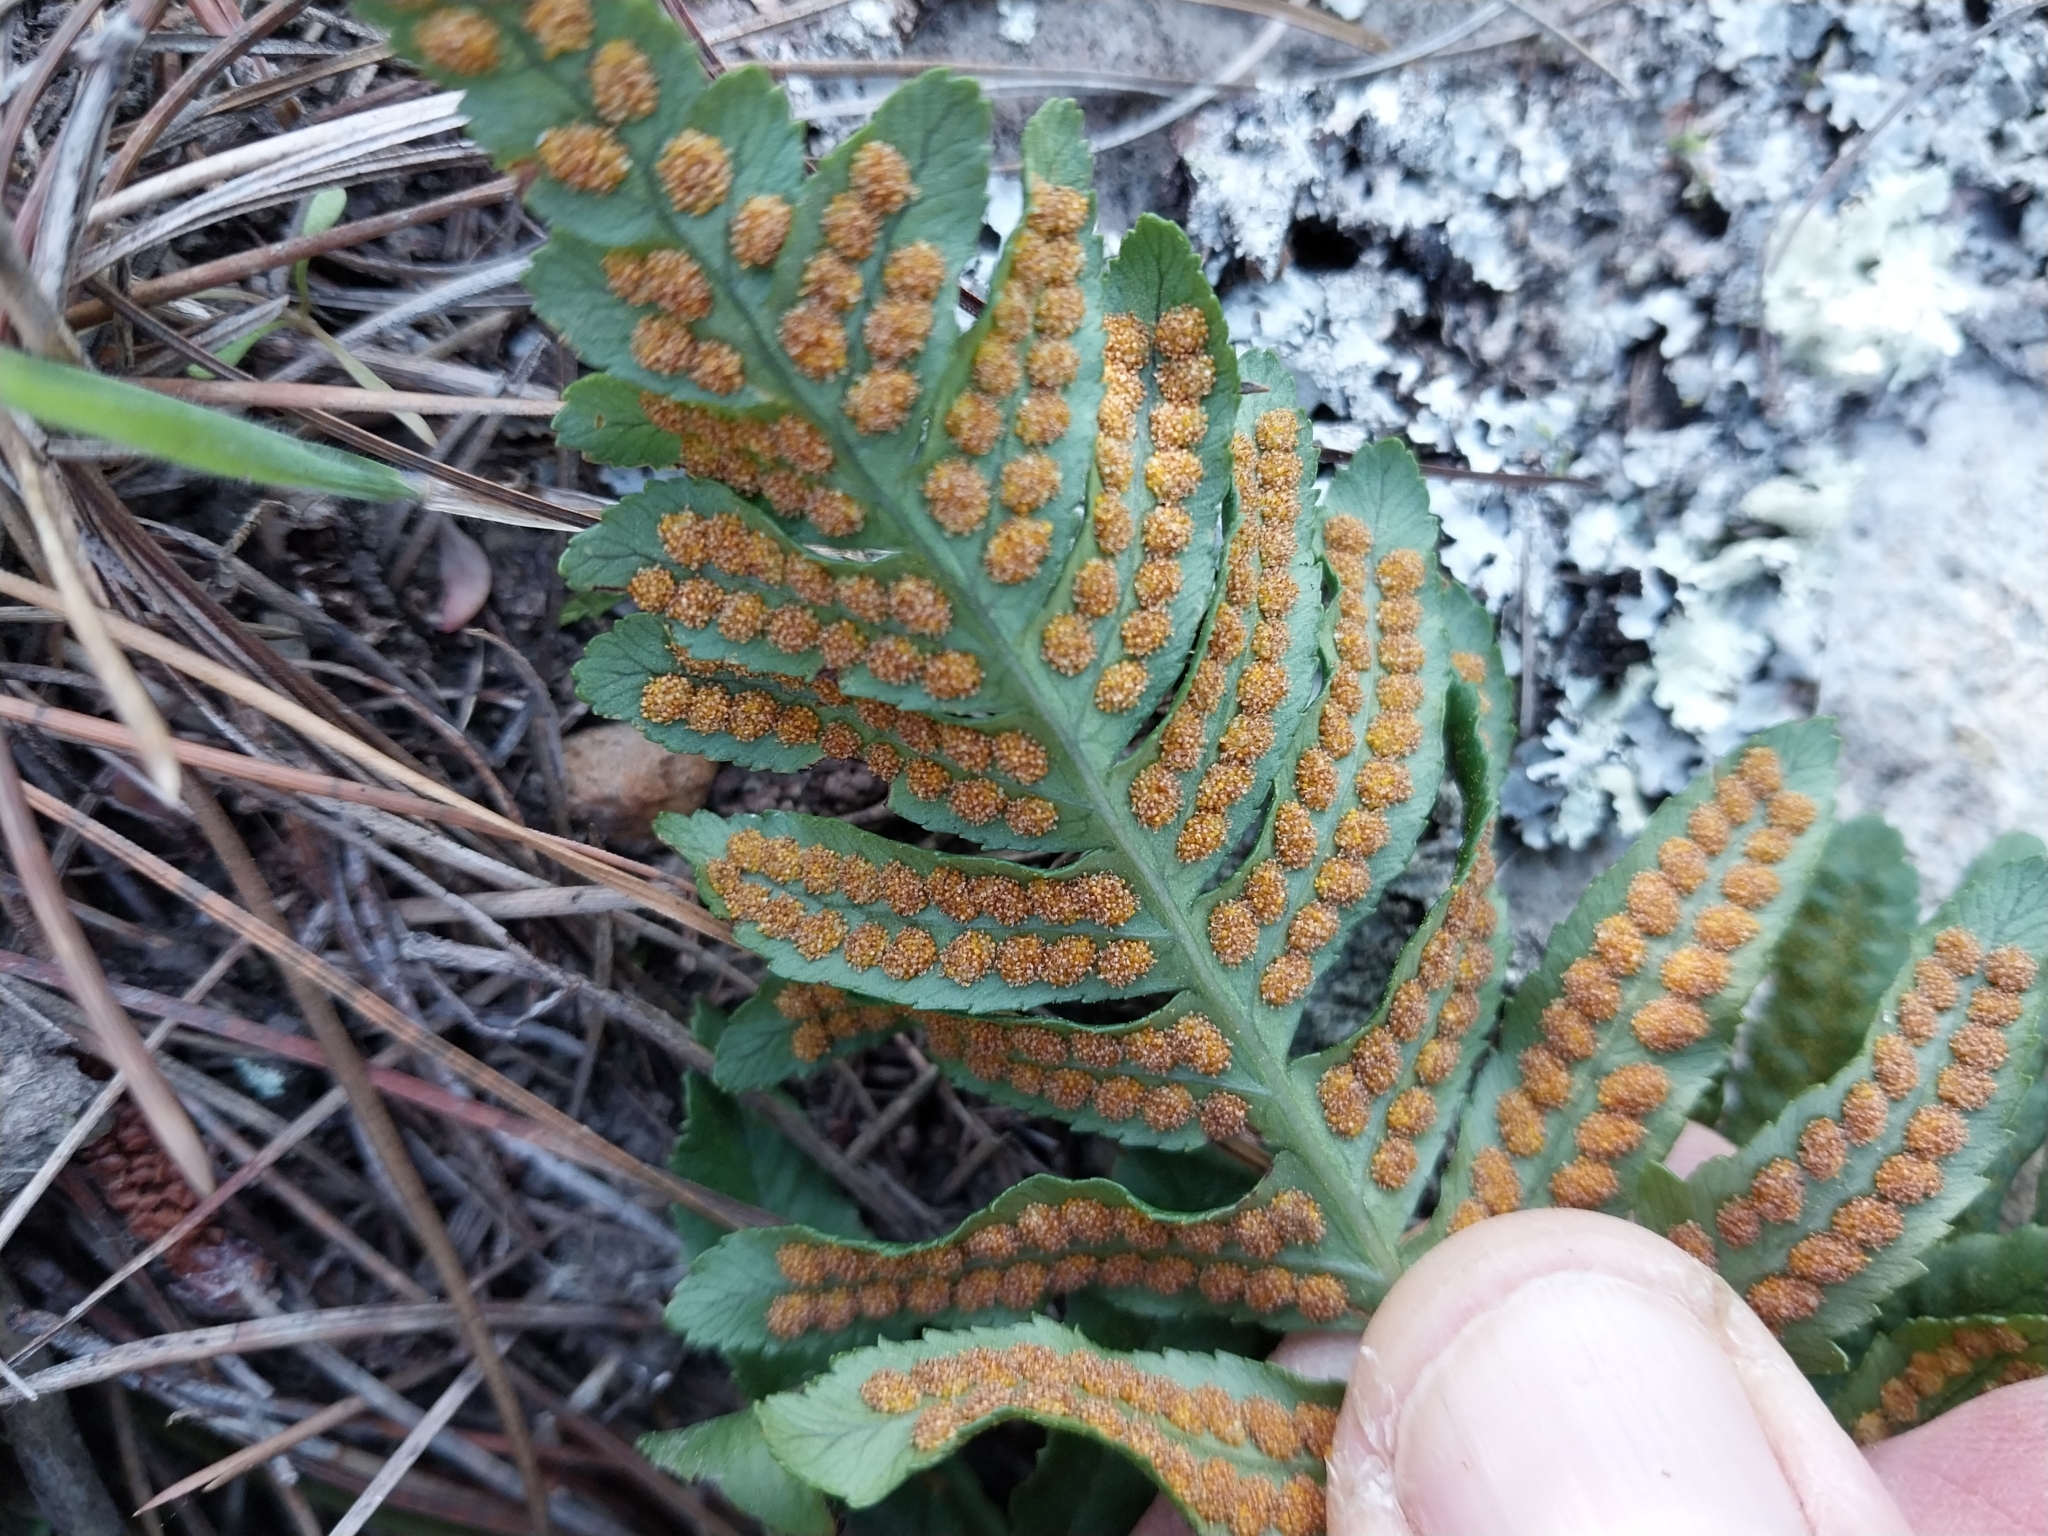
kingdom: Plantae
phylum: Tracheophyta
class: Polypodiopsida
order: Polypodiales
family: Polypodiaceae
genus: Polypodium
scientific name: Polypodium vulgare
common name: Common polypody
